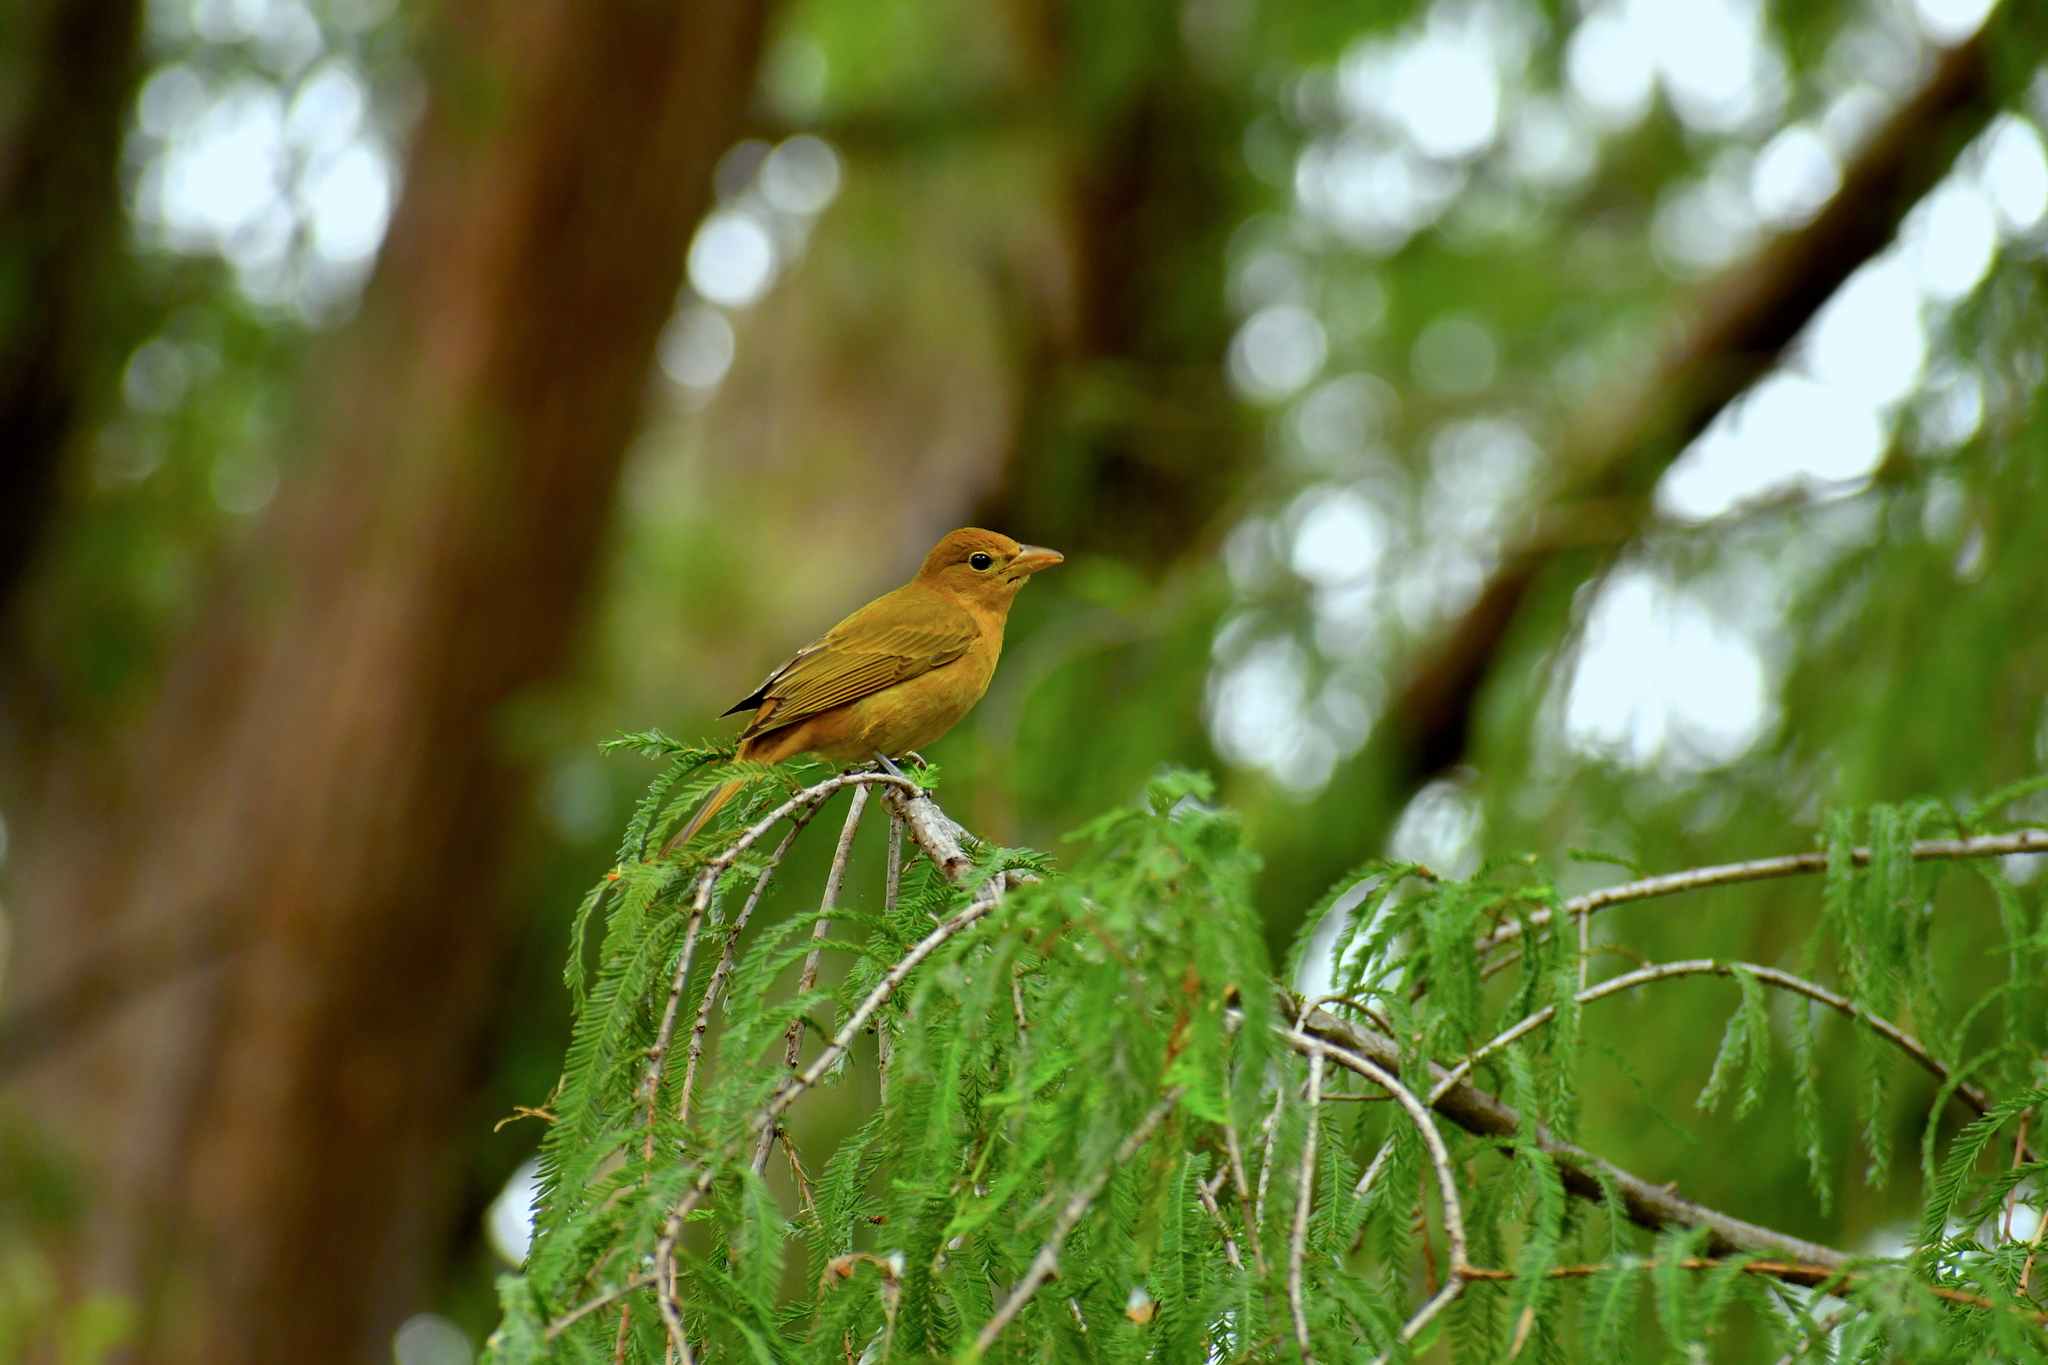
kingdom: Animalia
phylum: Chordata
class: Aves
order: Passeriformes
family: Cardinalidae
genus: Piranga
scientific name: Piranga rubra
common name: Summer tanager
